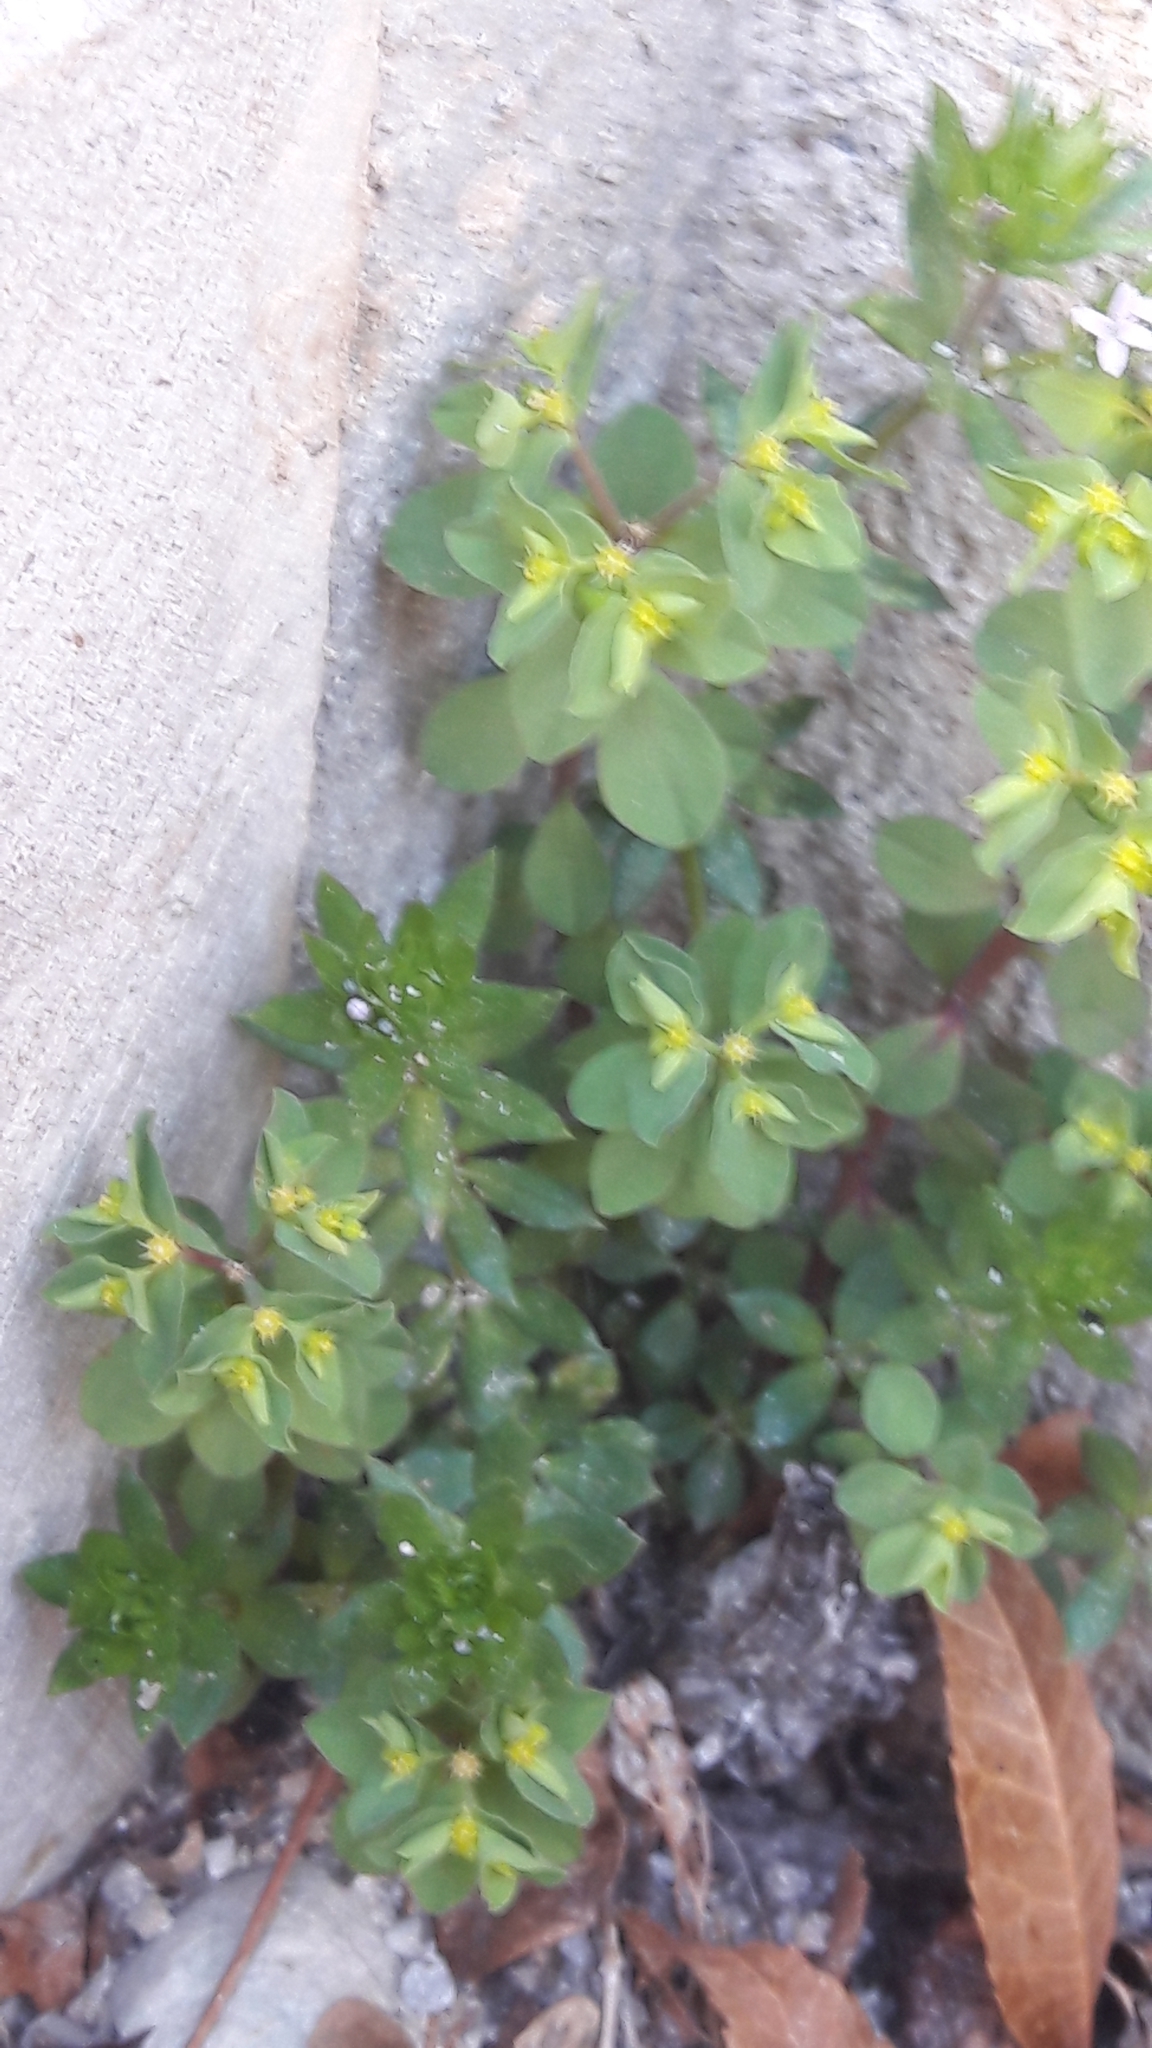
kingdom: Plantae
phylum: Tracheophyta
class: Magnoliopsida
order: Malpighiales
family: Euphorbiaceae
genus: Euphorbia
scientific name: Euphorbia peplus
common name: Petty spurge
